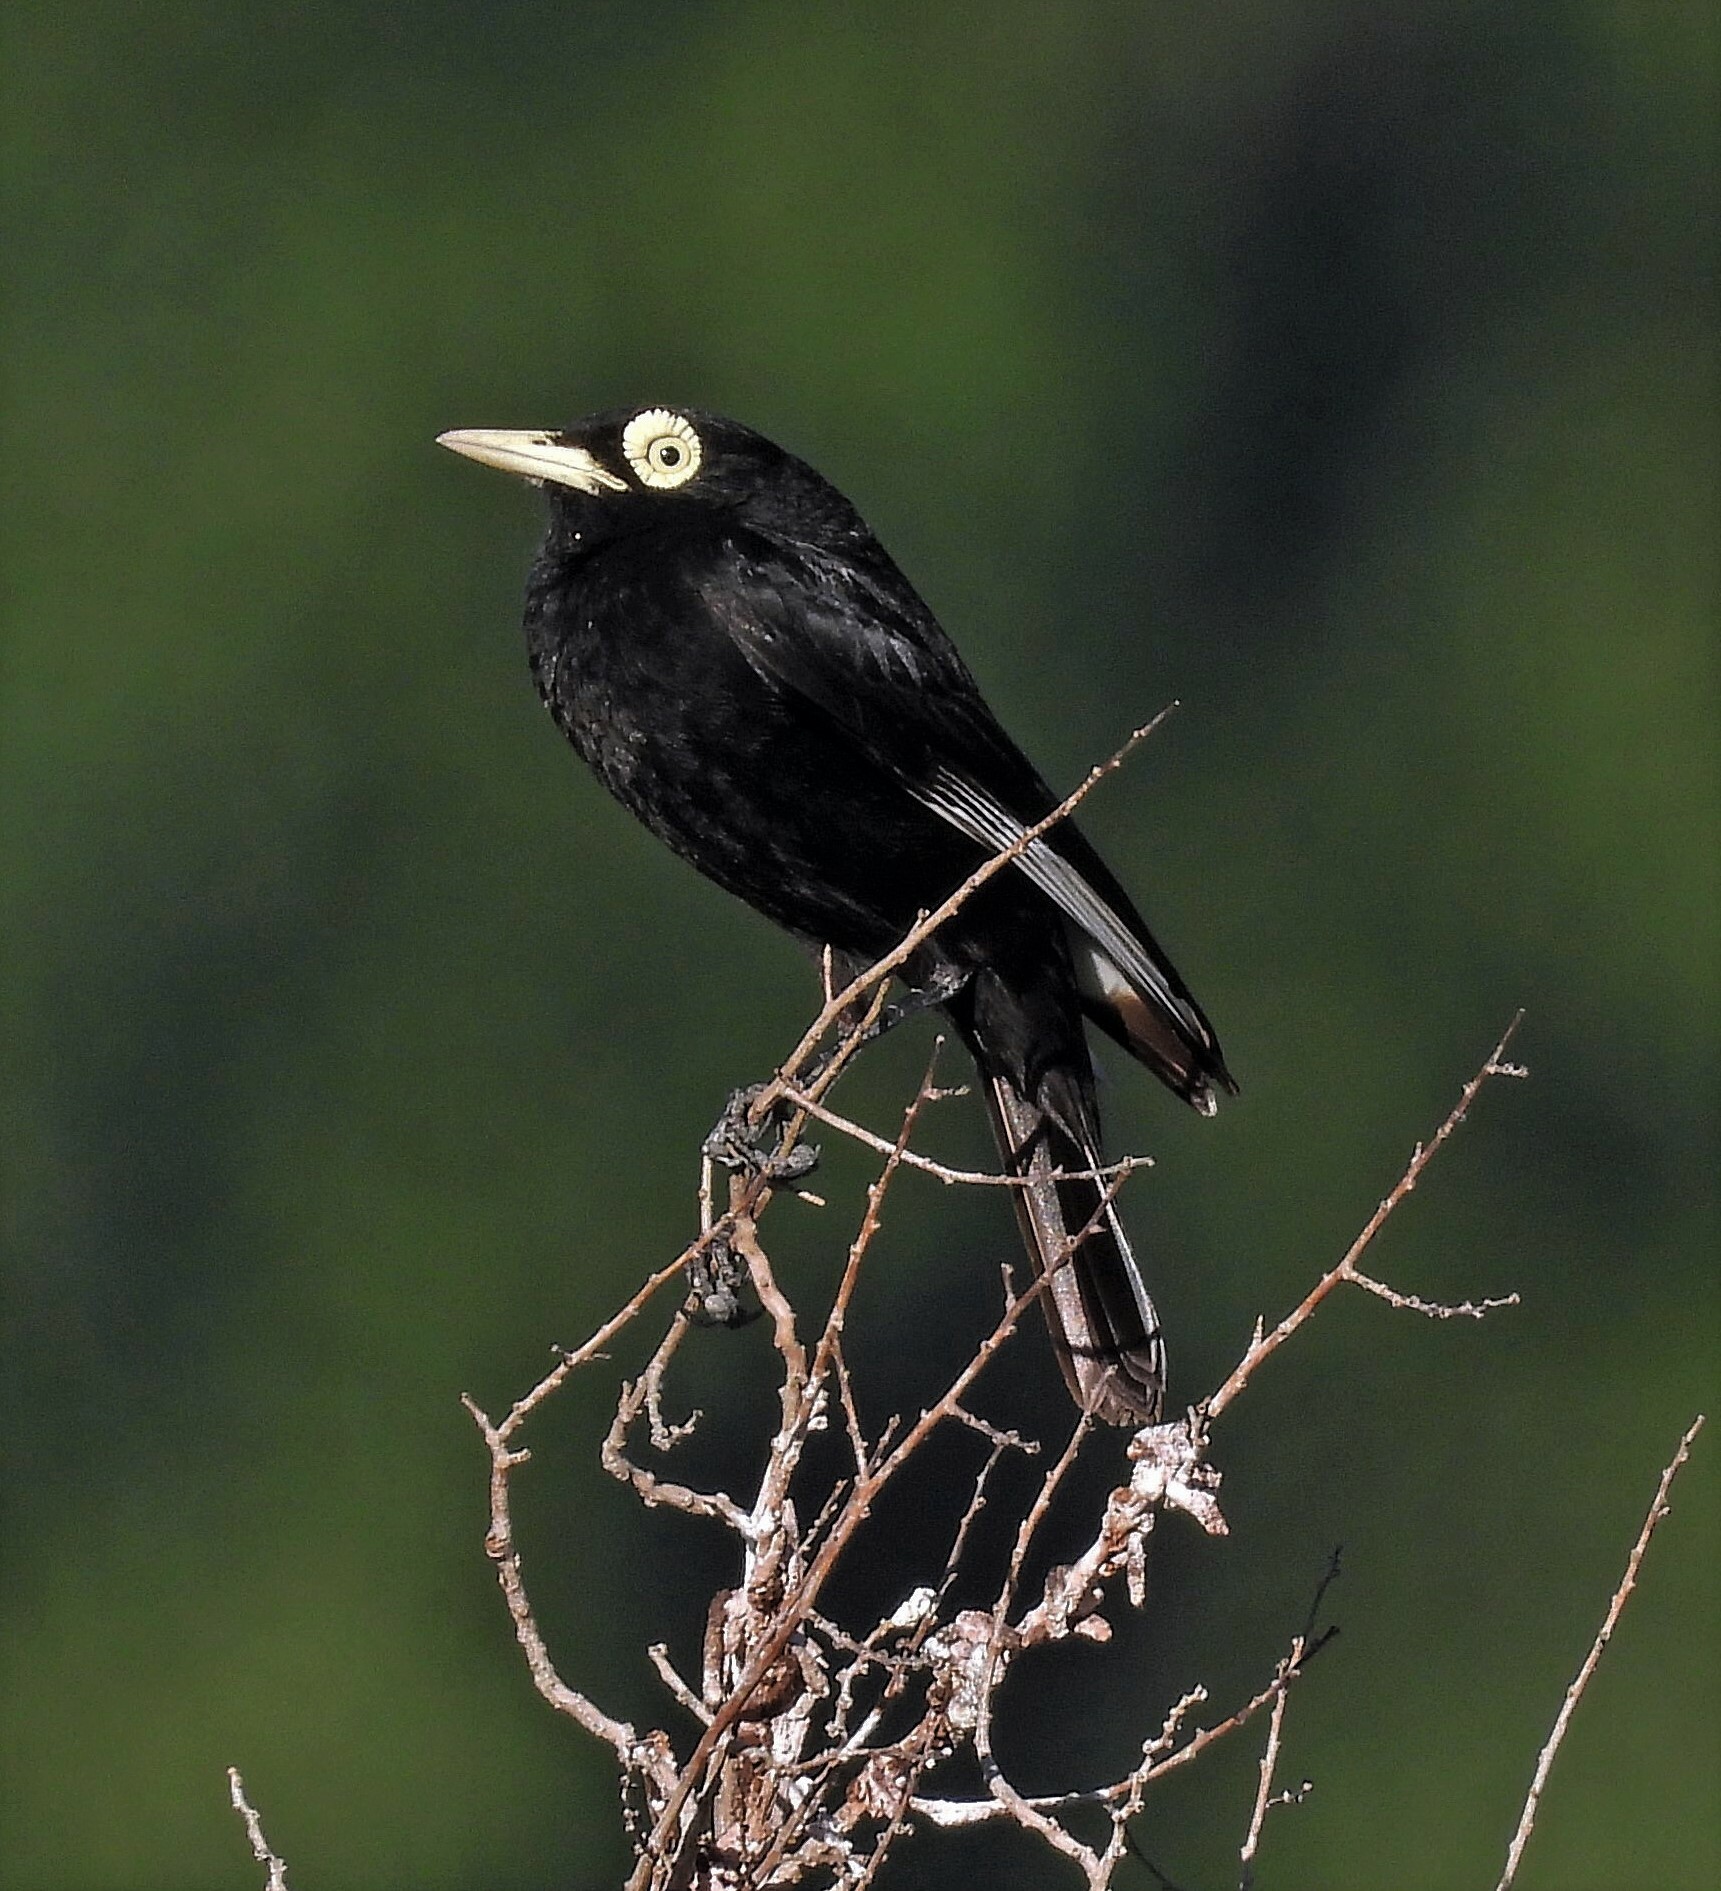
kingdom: Animalia
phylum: Chordata
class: Aves
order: Passeriformes
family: Tyrannidae
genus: Hymenops
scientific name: Hymenops perspicillatus
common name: Spectacled tyrant
